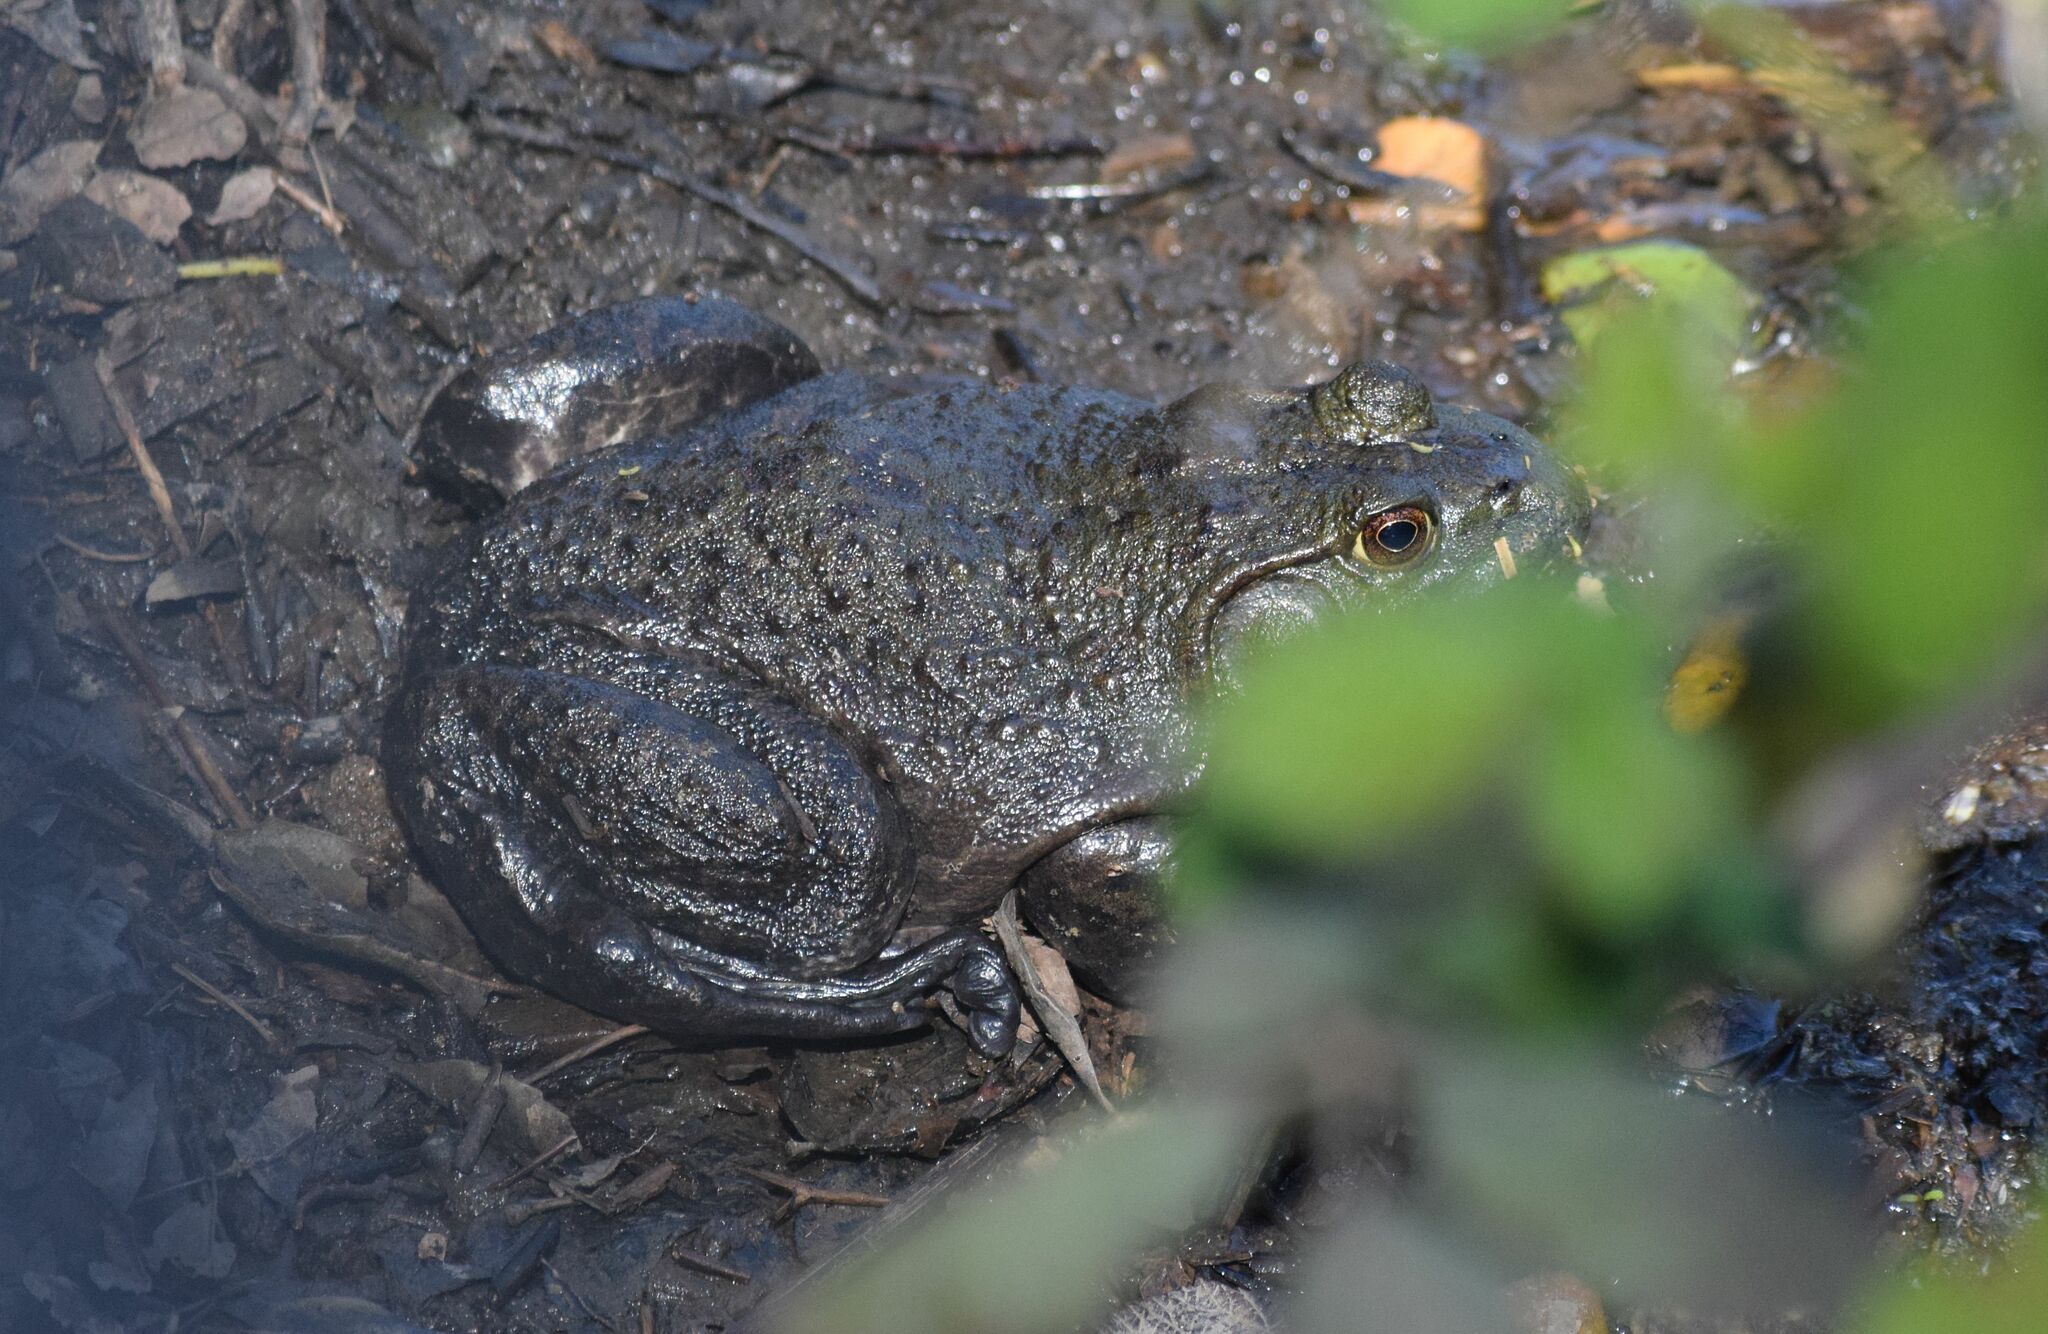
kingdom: Animalia
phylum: Chordata
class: Amphibia
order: Anura
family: Ranidae
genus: Lithobates
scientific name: Lithobates catesbeianus
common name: American bullfrog
